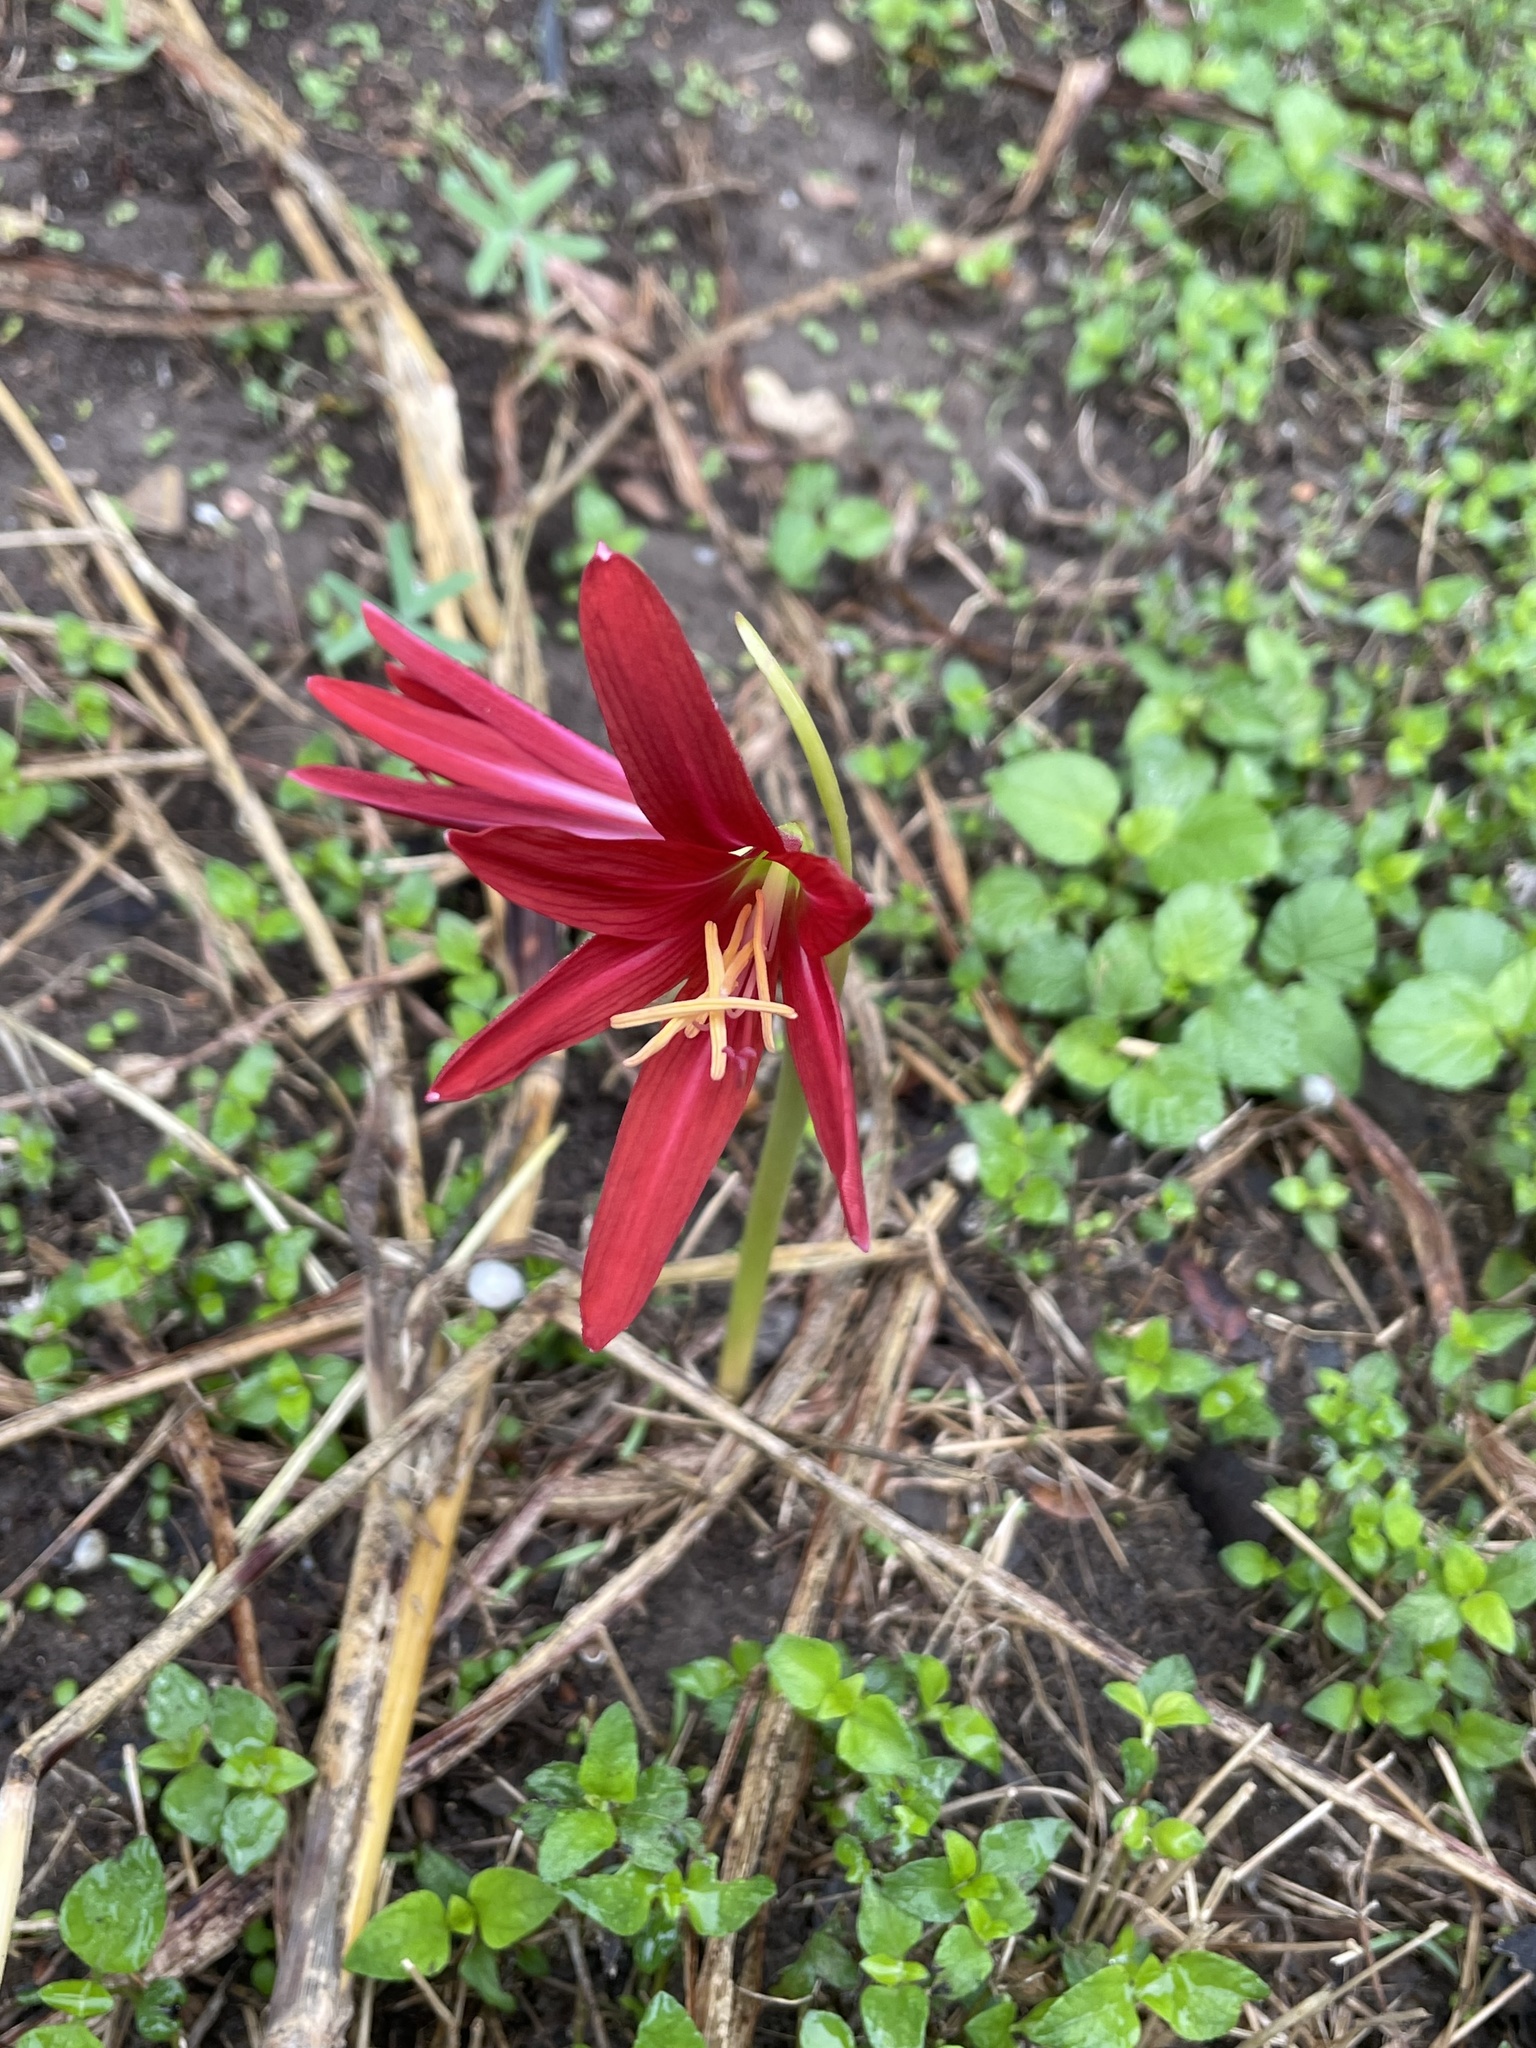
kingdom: Plantae
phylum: Tracheophyta
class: Liliopsida
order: Asparagales
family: Amaryllidaceae
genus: Zephyranthes
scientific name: Zephyranthes bifida
